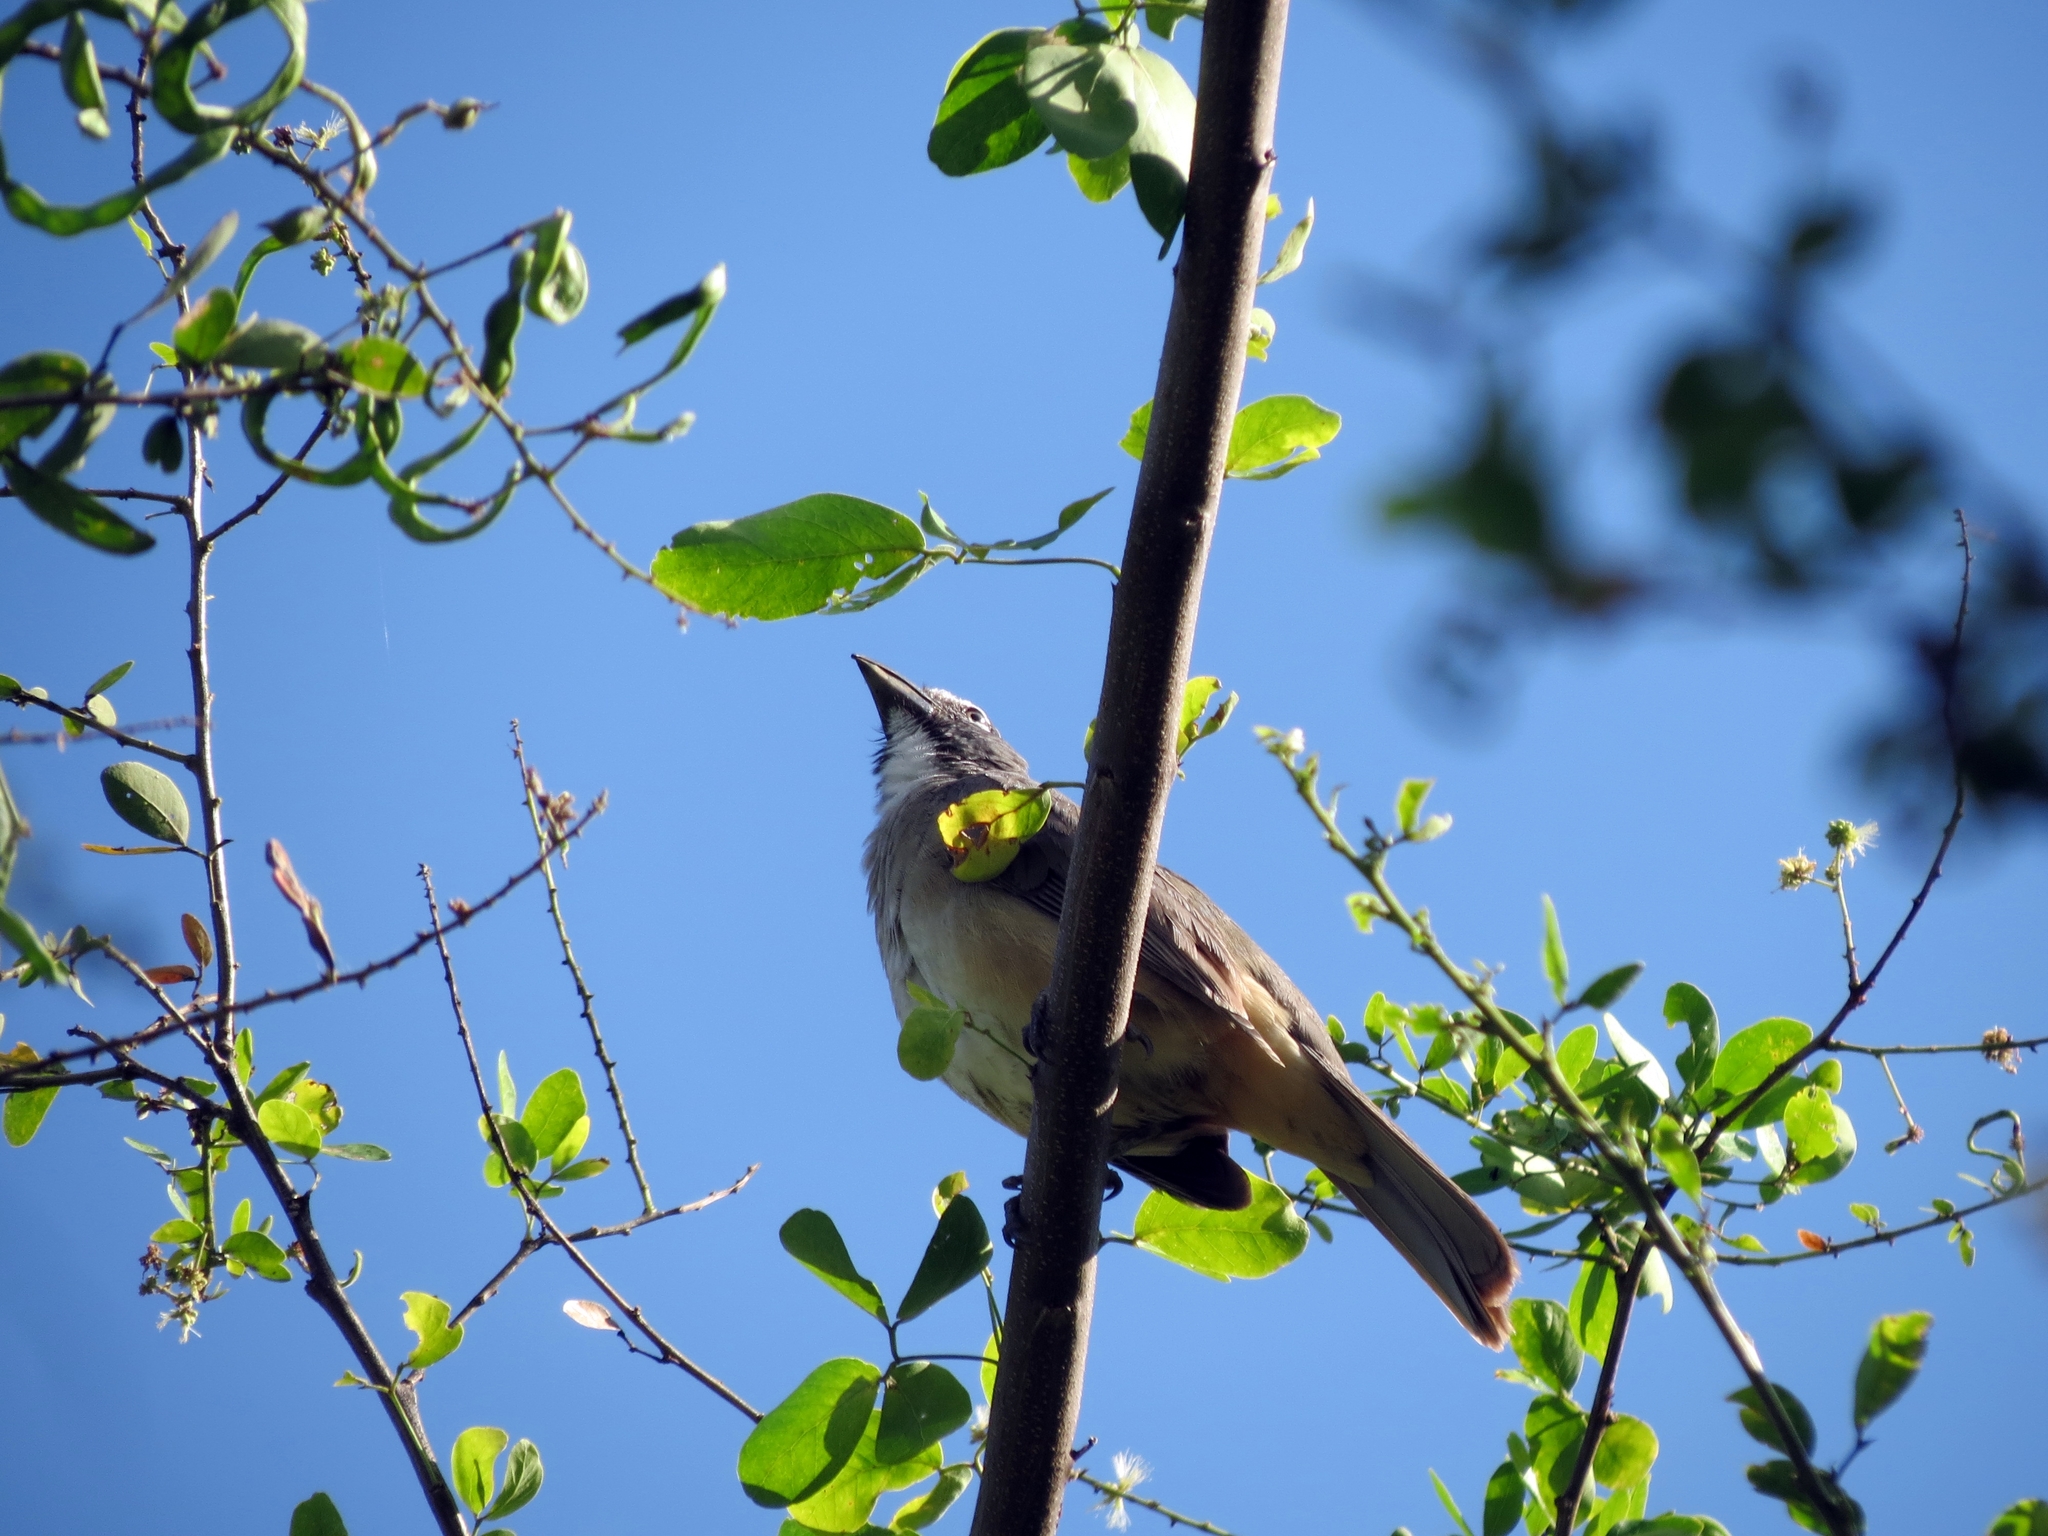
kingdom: Animalia
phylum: Chordata
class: Aves
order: Passeriformes
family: Thraupidae
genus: Saltator
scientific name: Saltator olivascens
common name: Caribbean grey saltator
